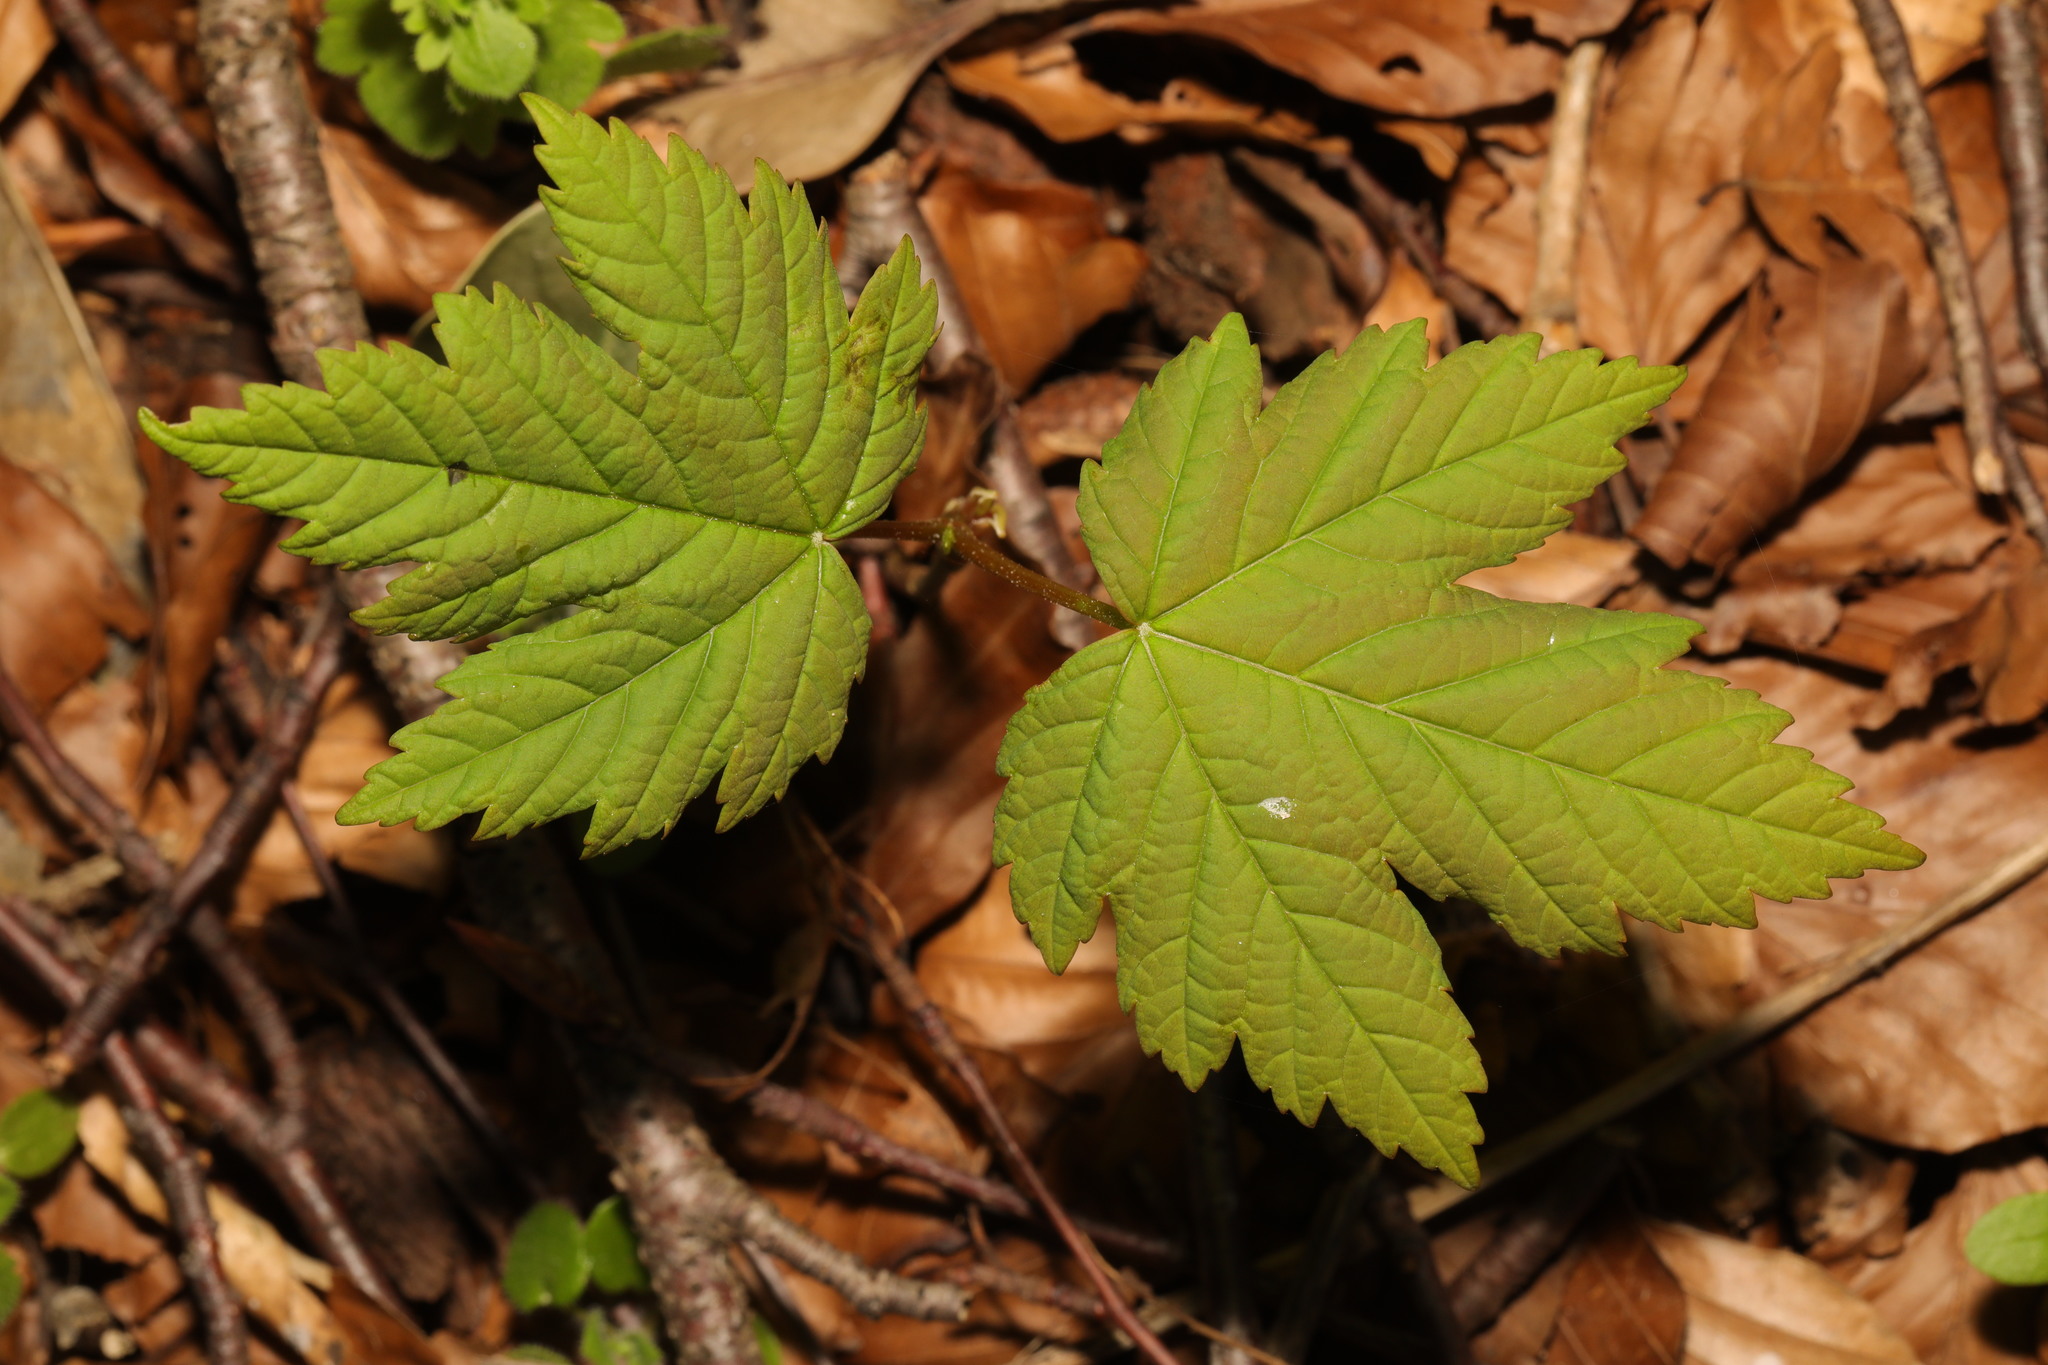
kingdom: Plantae
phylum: Tracheophyta
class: Magnoliopsida
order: Sapindales
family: Sapindaceae
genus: Acer
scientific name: Acer pseudoplatanus
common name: Sycamore
